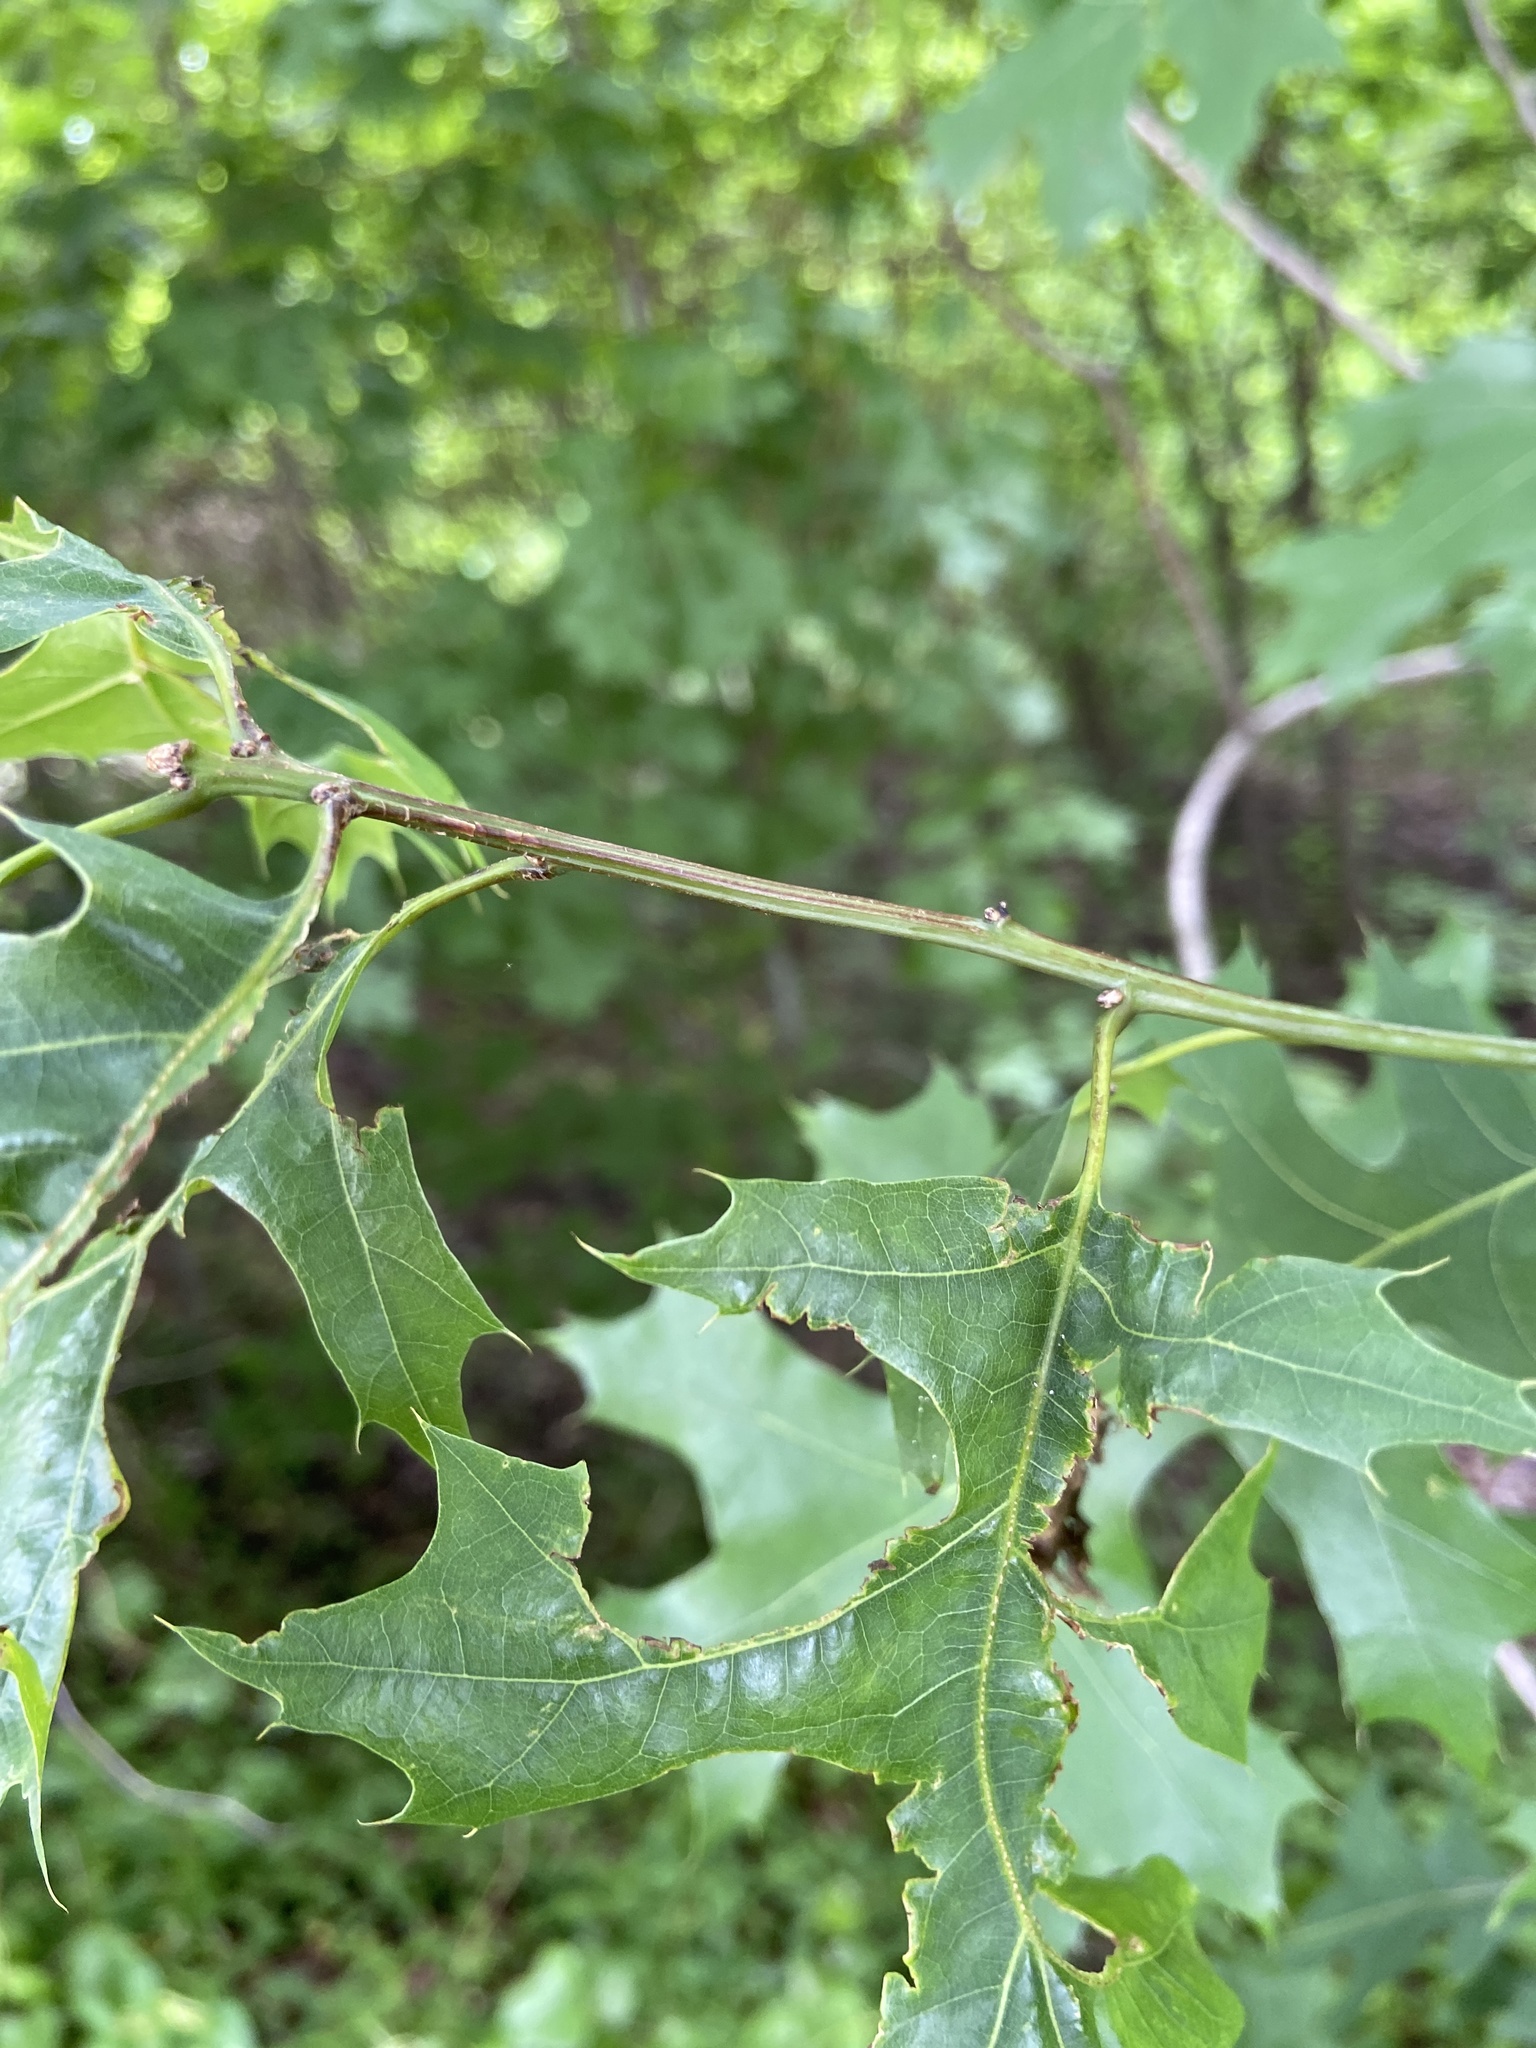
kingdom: Plantae
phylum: Tracheophyta
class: Magnoliopsida
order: Fagales
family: Fagaceae
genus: Quercus
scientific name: Quercus shumardii
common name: Shumard oak
